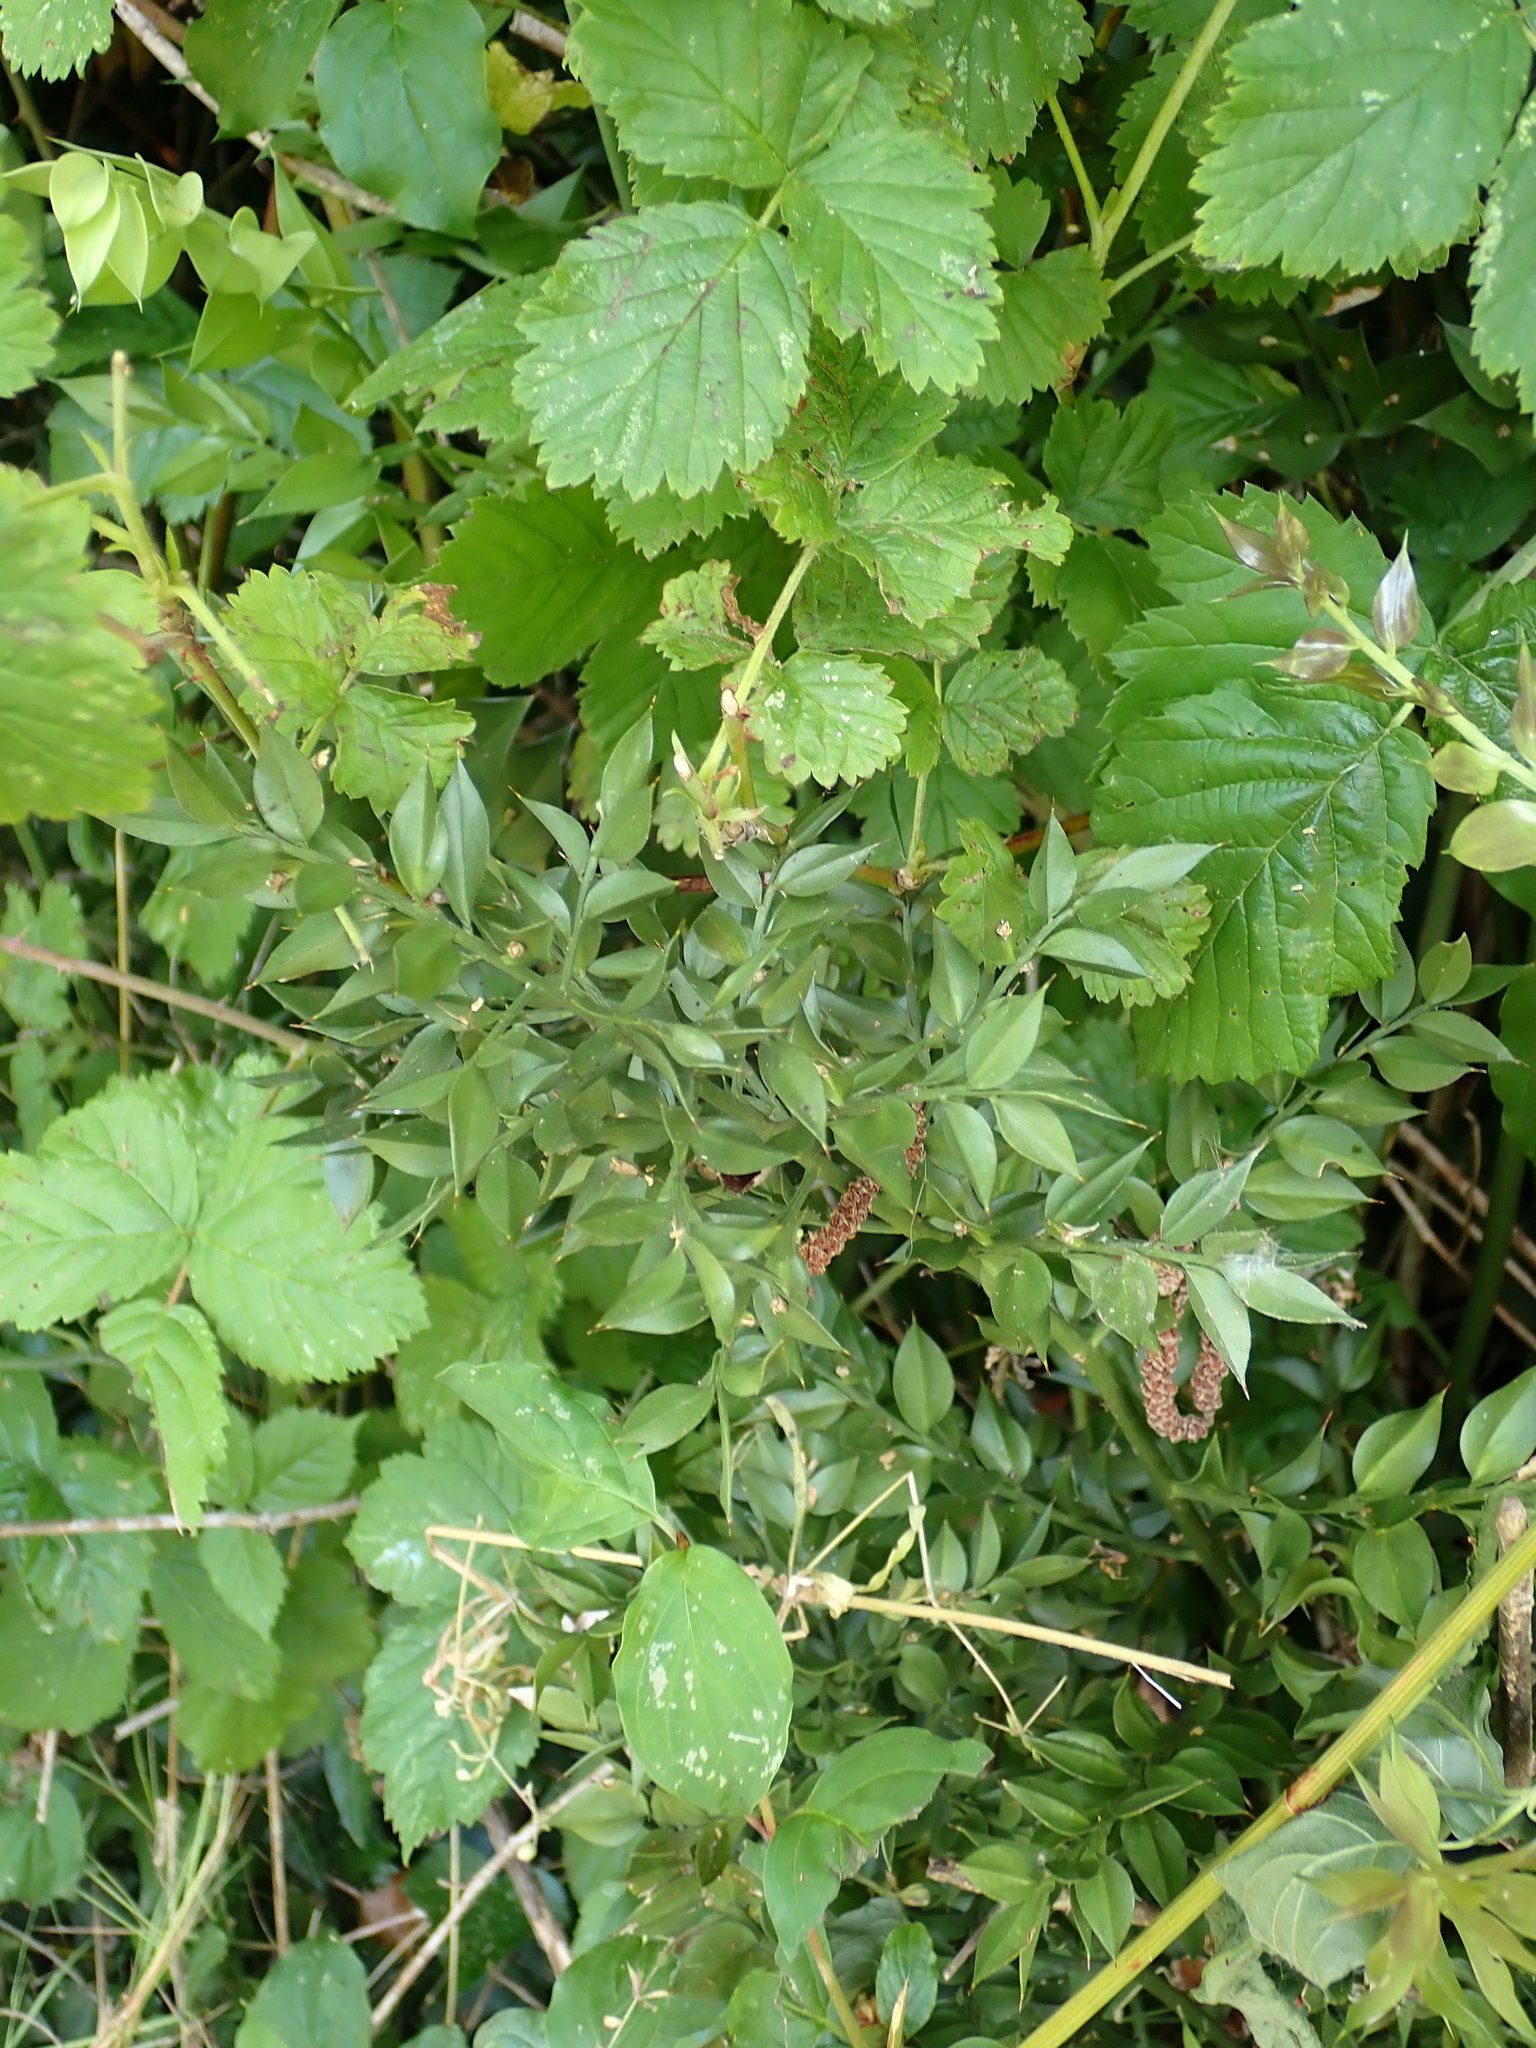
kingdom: Plantae
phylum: Tracheophyta
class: Liliopsida
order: Asparagales
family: Asparagaceae
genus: Ruscus
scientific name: Ruscus aculeatus
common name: Butcher's-broom
